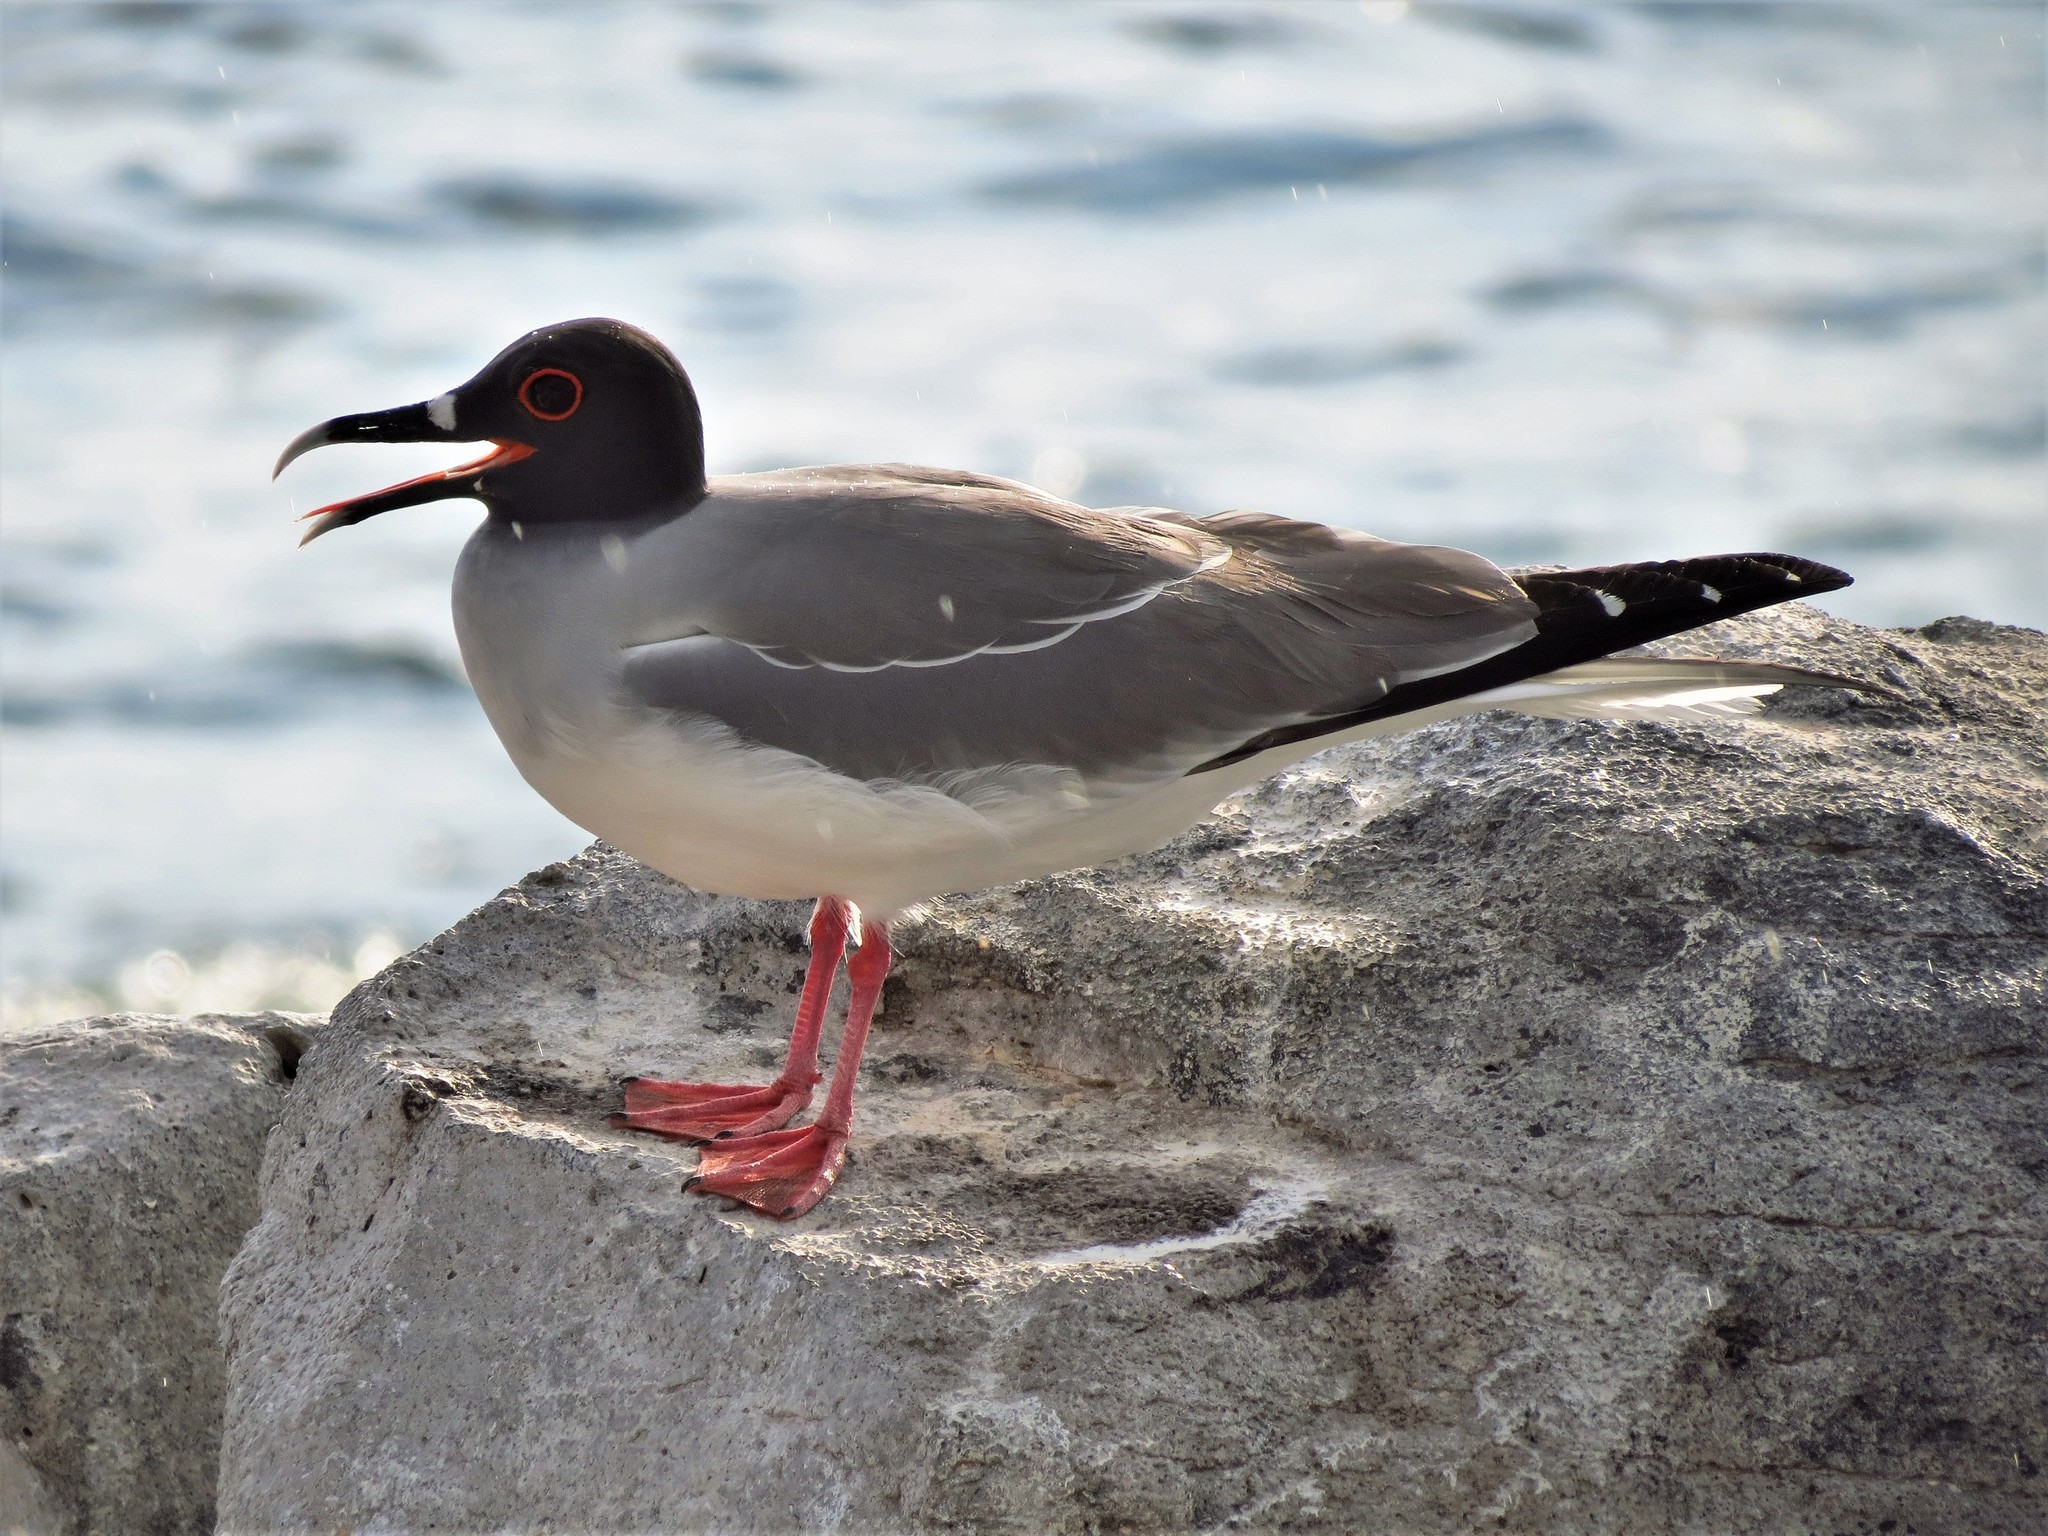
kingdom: Animalia
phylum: Chordata
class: Aves
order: Charadriiformes
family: Laridae
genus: Creagrus
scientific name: Creagrus furcatus
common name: Swallow-tailed gull
